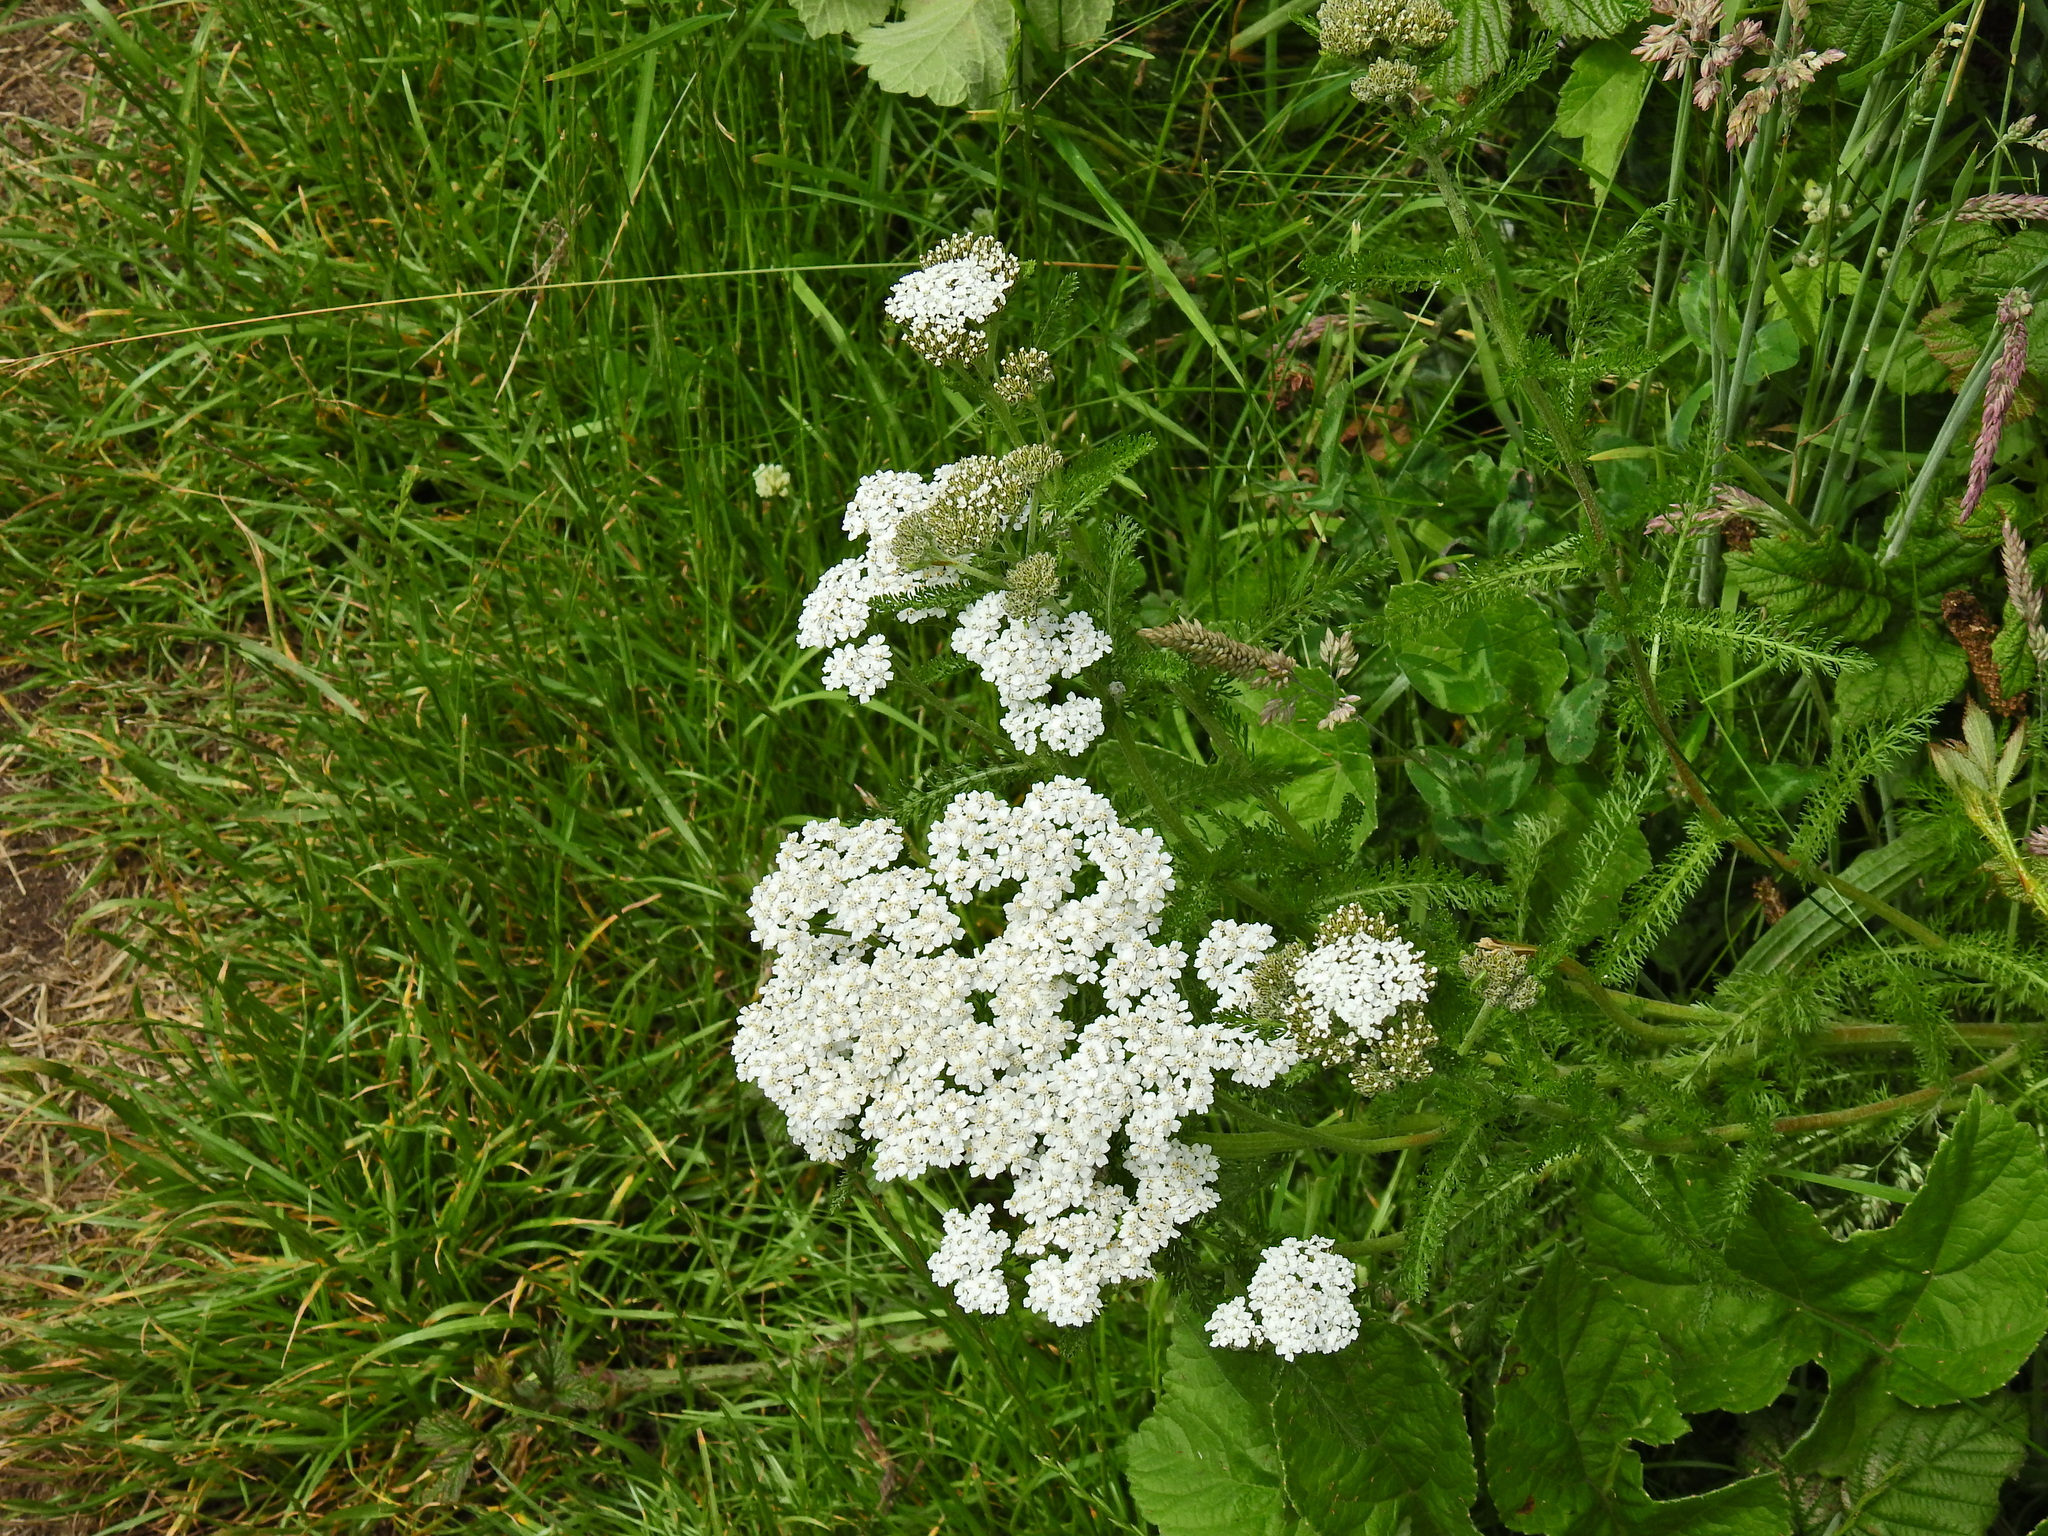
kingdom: Plantae
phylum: Tracheophyta
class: Magnoliopsida
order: Asterales
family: Asteraceae
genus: Achillea
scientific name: Achillea millefolium
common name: Yarrow
